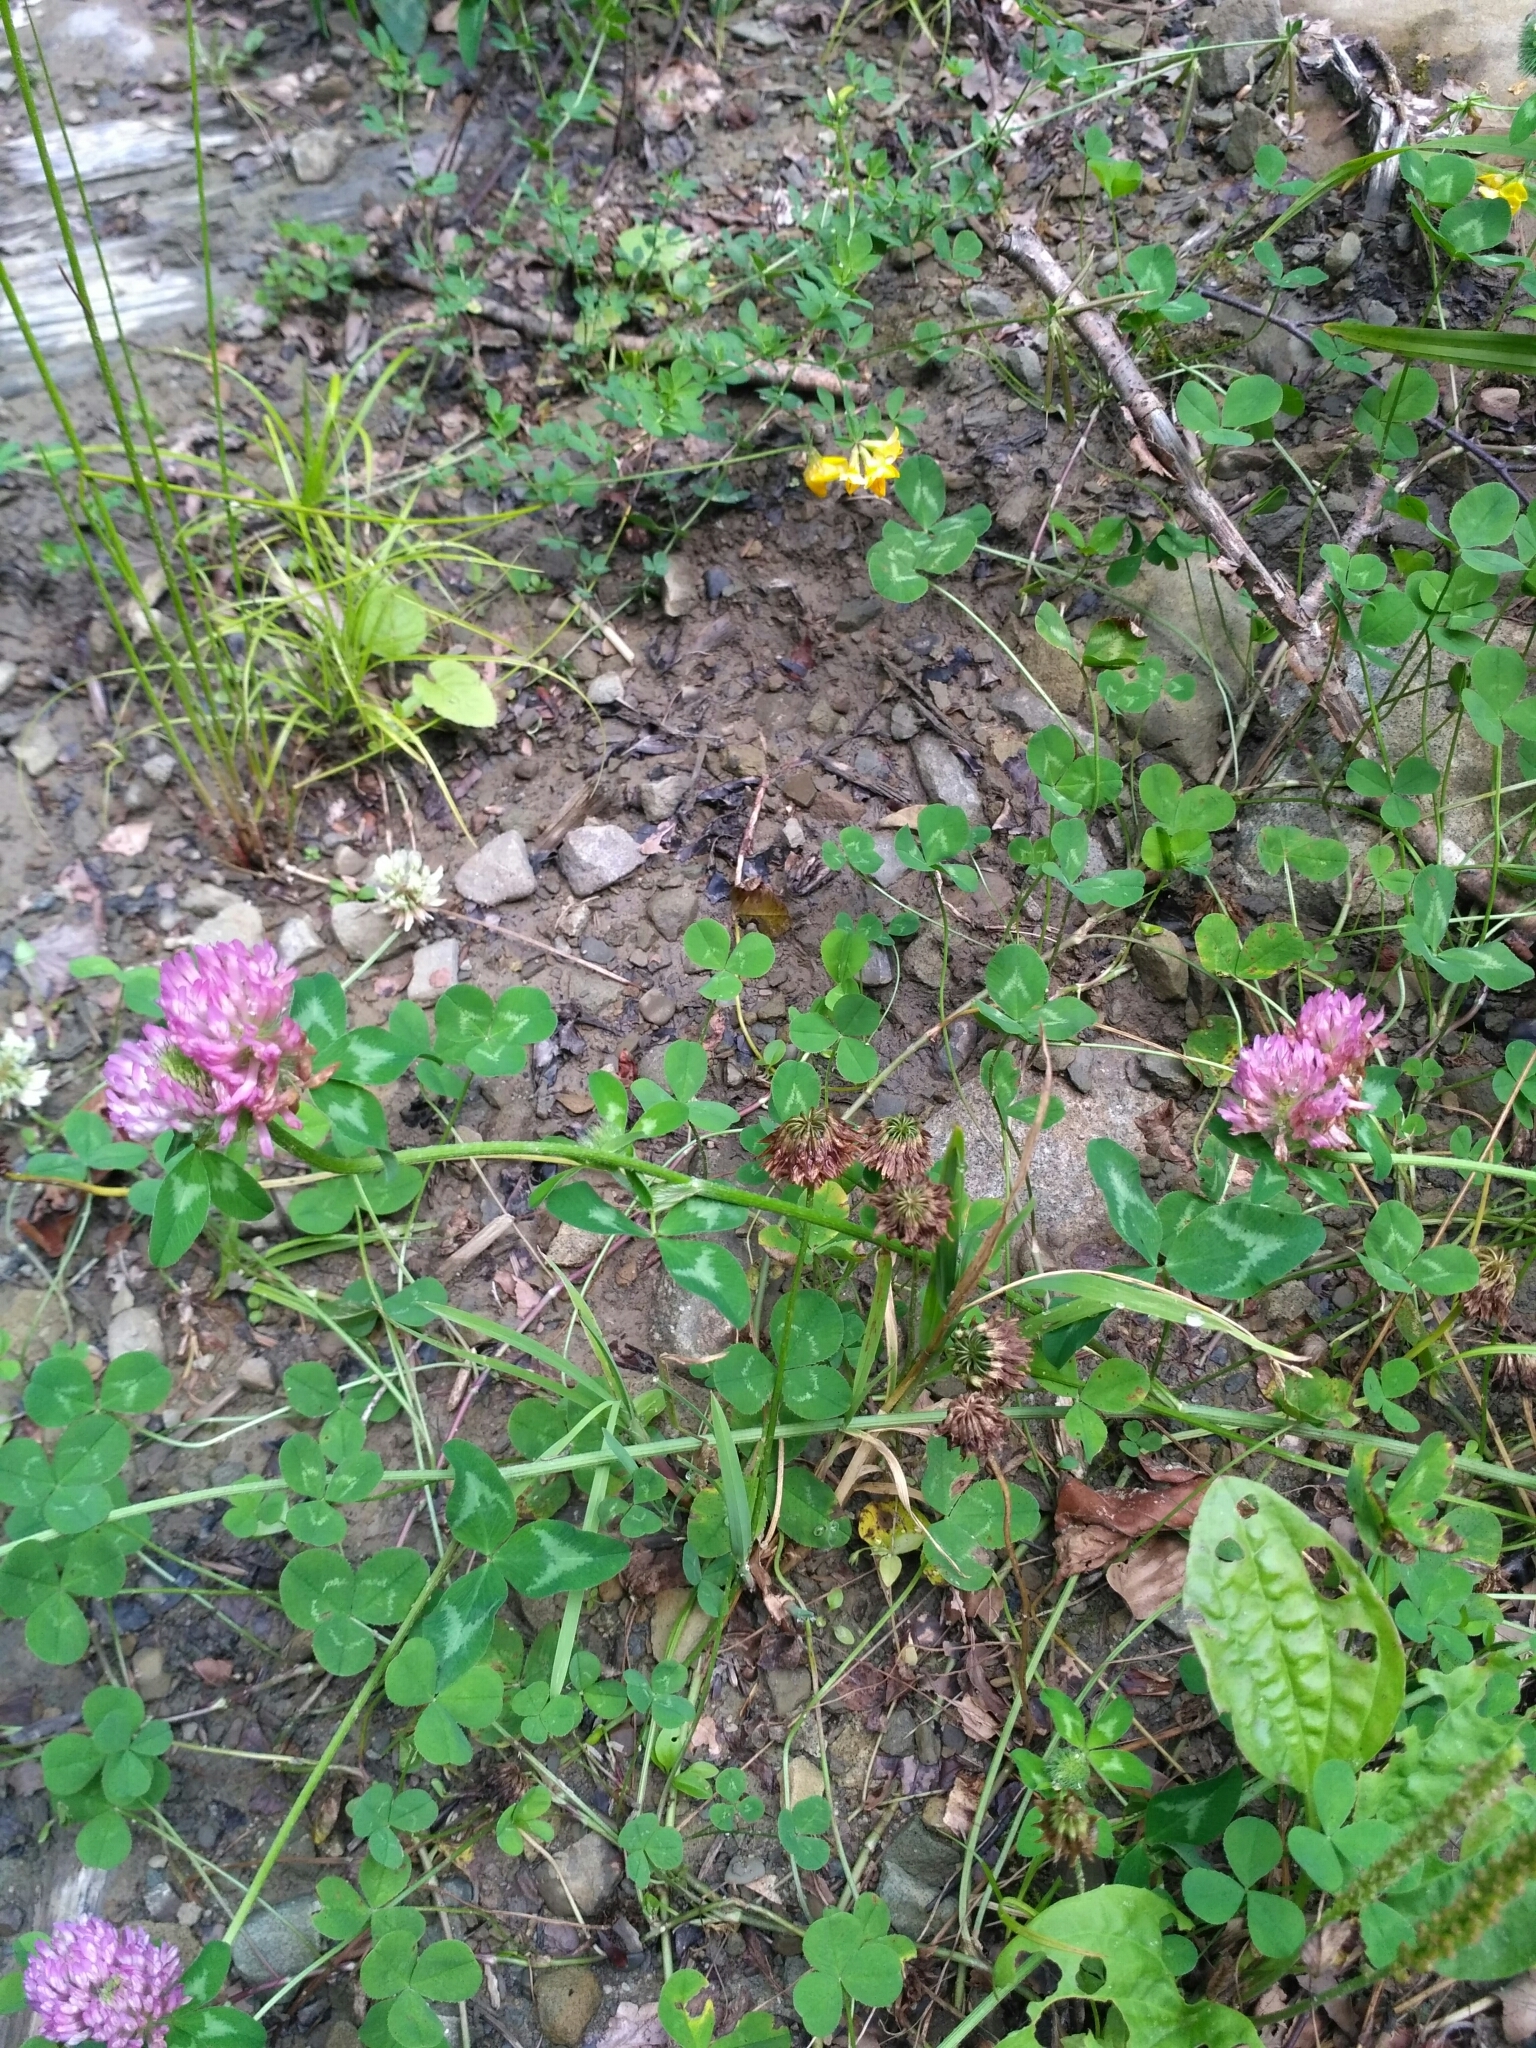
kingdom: Plantae
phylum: Tracheophyta
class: Magnoliopsida
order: Fabales
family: Fabaceae
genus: Trifolium
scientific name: Trifolium pratense
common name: Red clover
